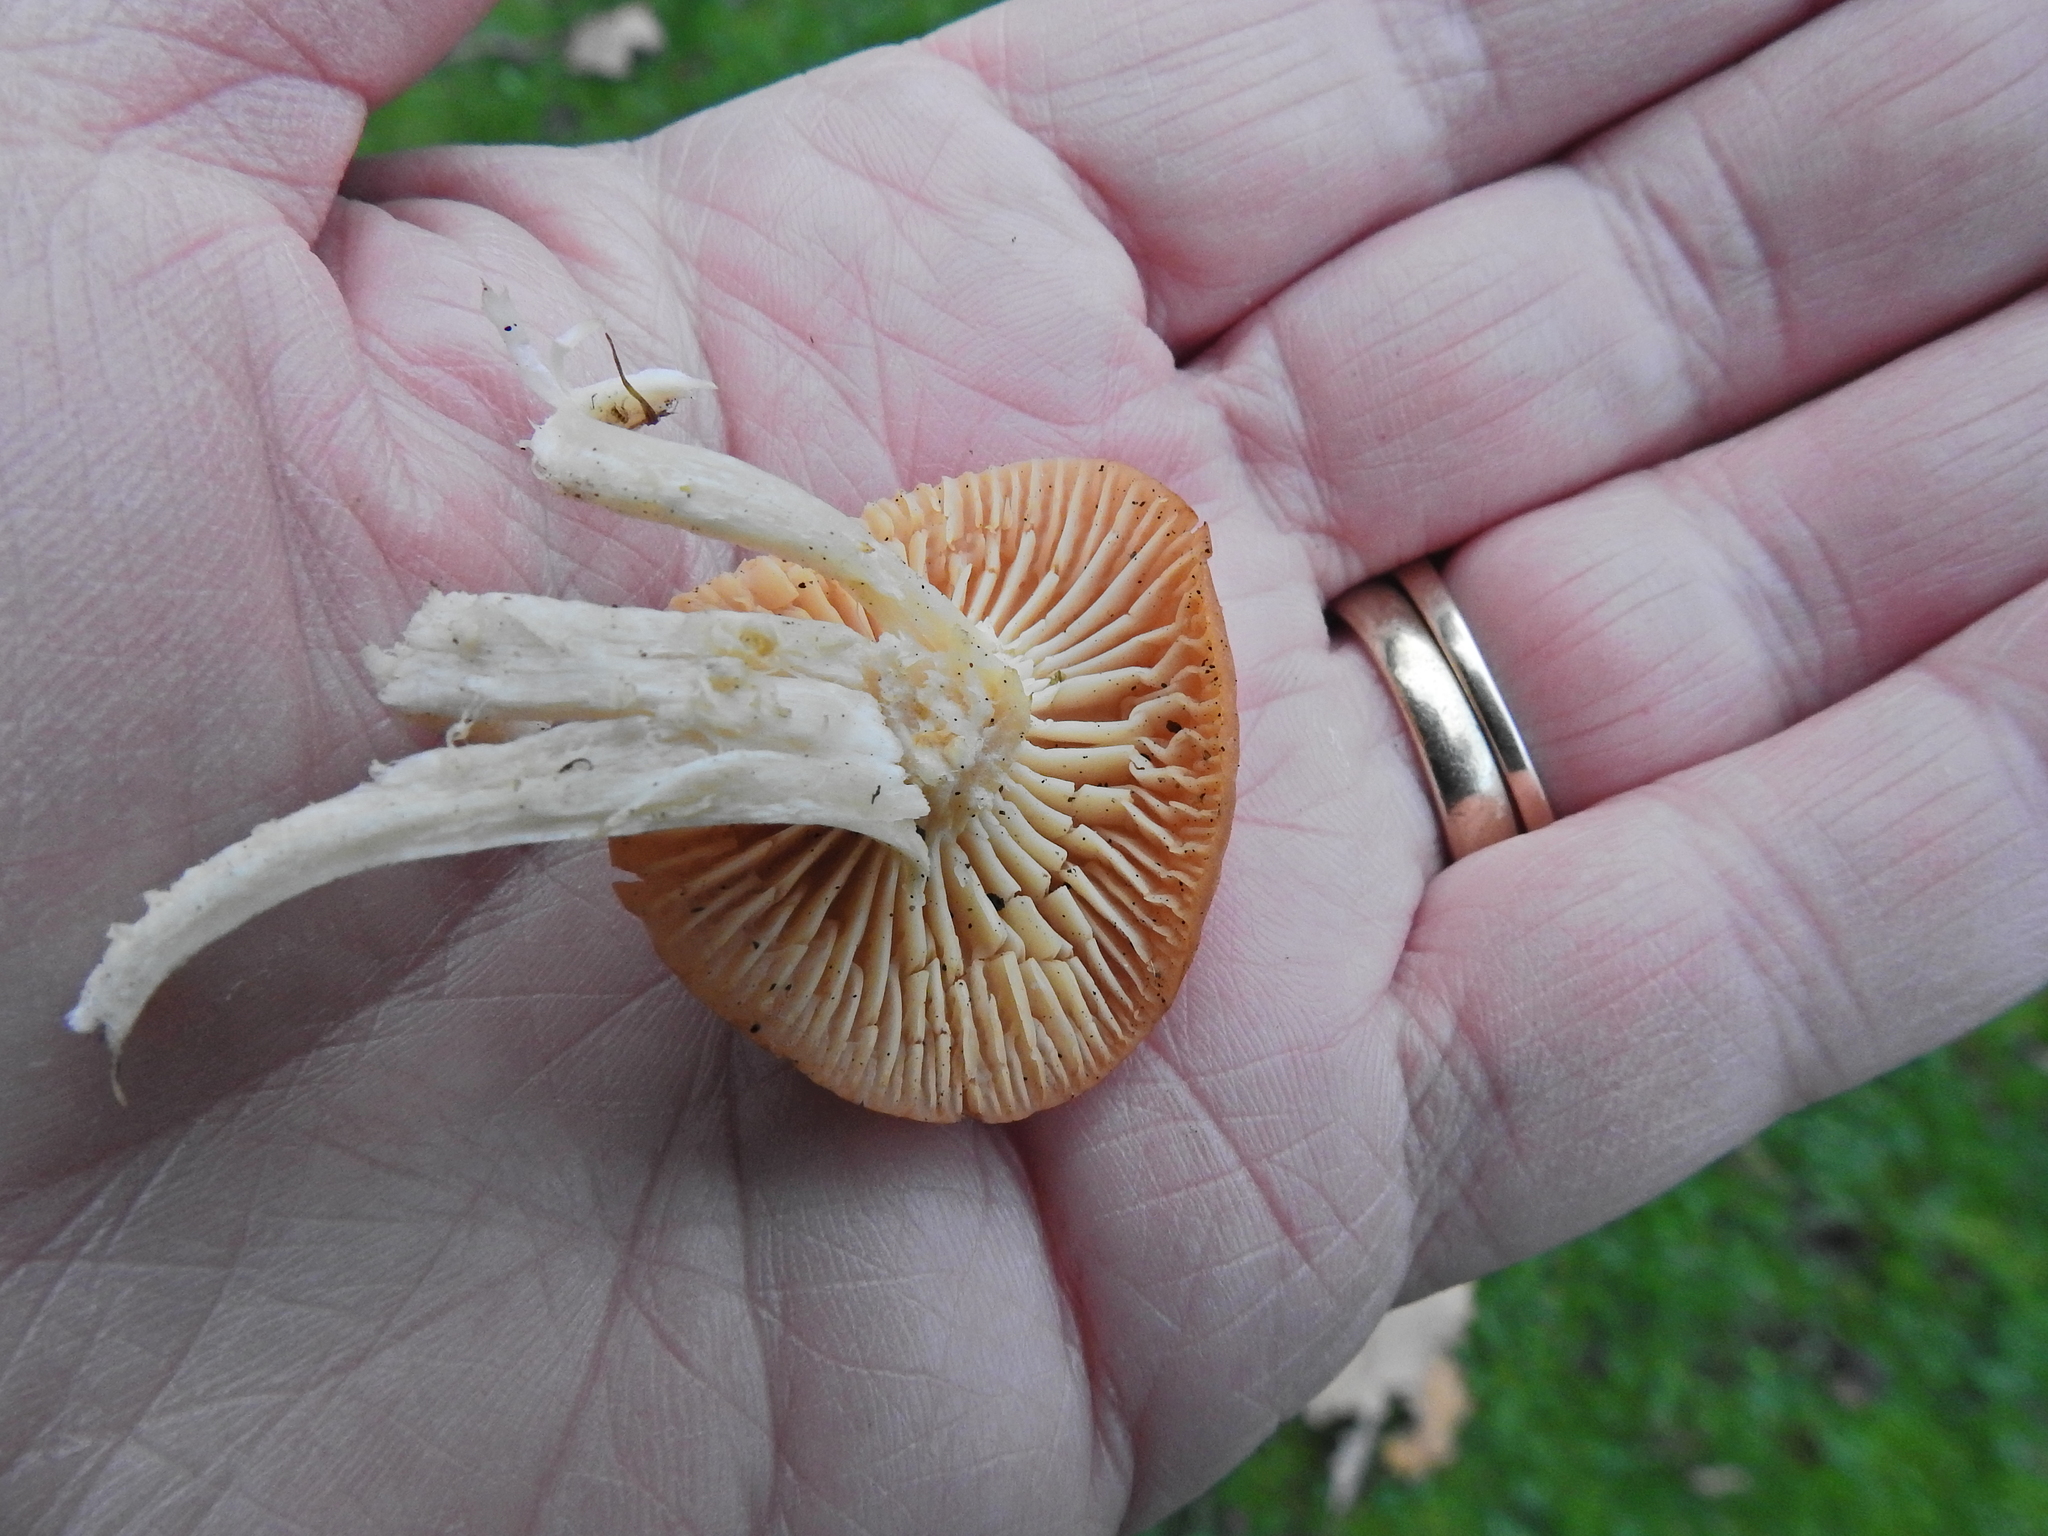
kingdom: Fungi
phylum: Basidiomycota
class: Agaricomycetes
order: Agaricales
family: Hygrophoraceae
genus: Cuphophyllus
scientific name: Cuphophyllus pratensis
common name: Meadow waxcap
